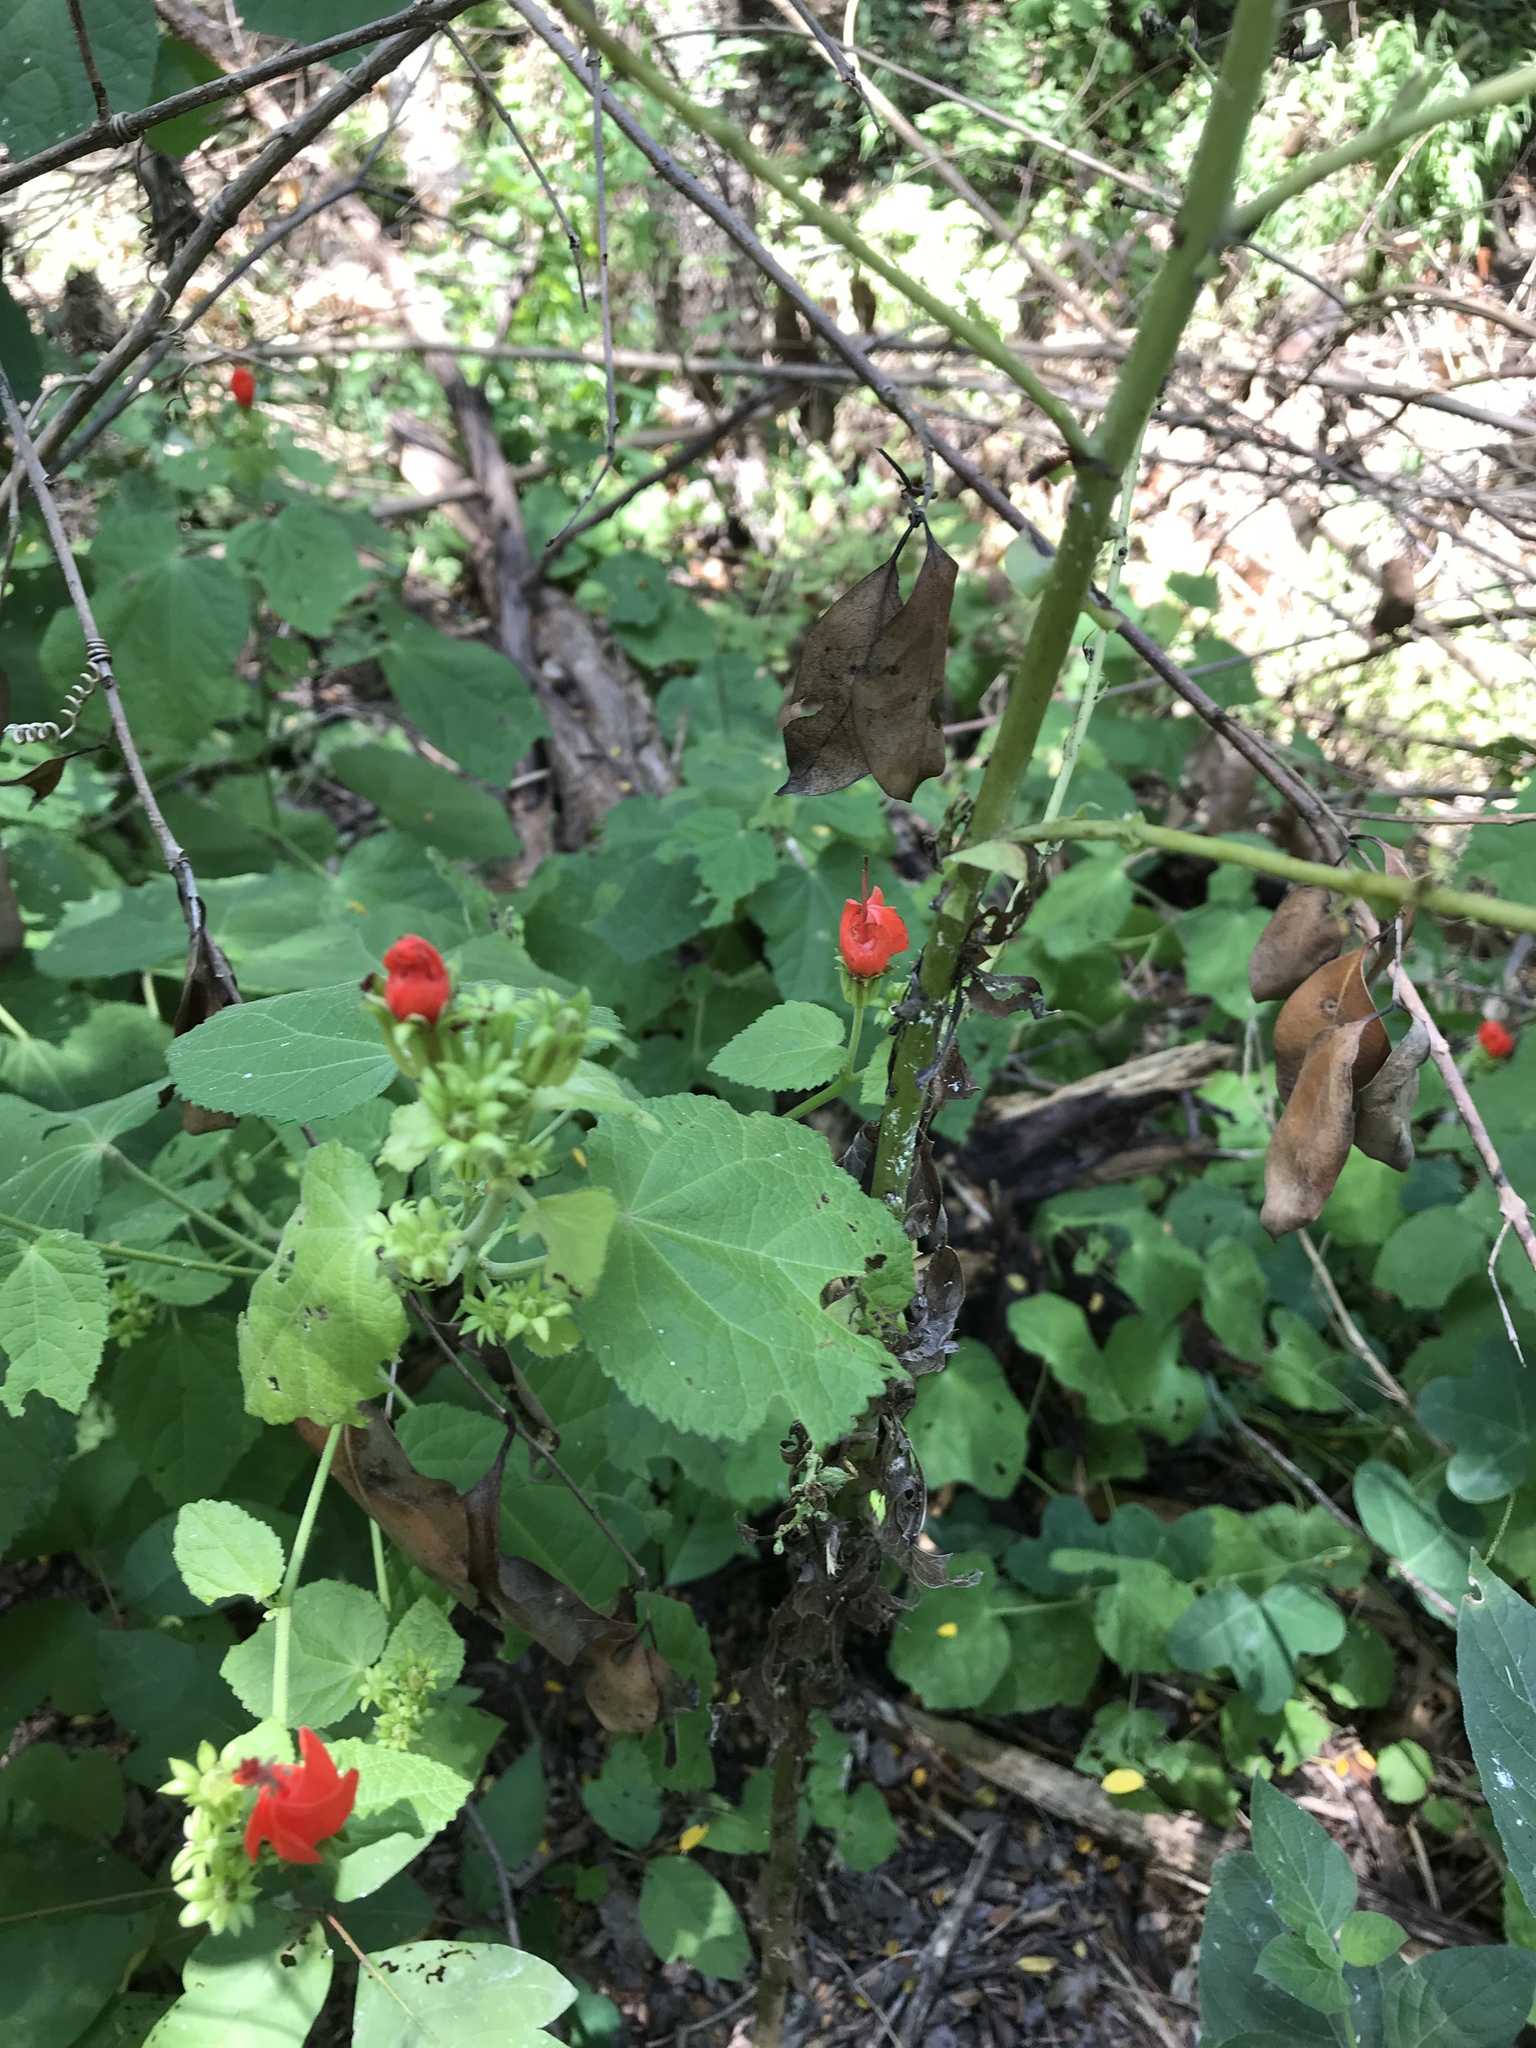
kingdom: Plantae
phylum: Tracheophyta
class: Magnoliopsida
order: Malvales
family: Malvaceae
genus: Malvaviscus
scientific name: Malvaviscus arboreus
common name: Wax mallow
